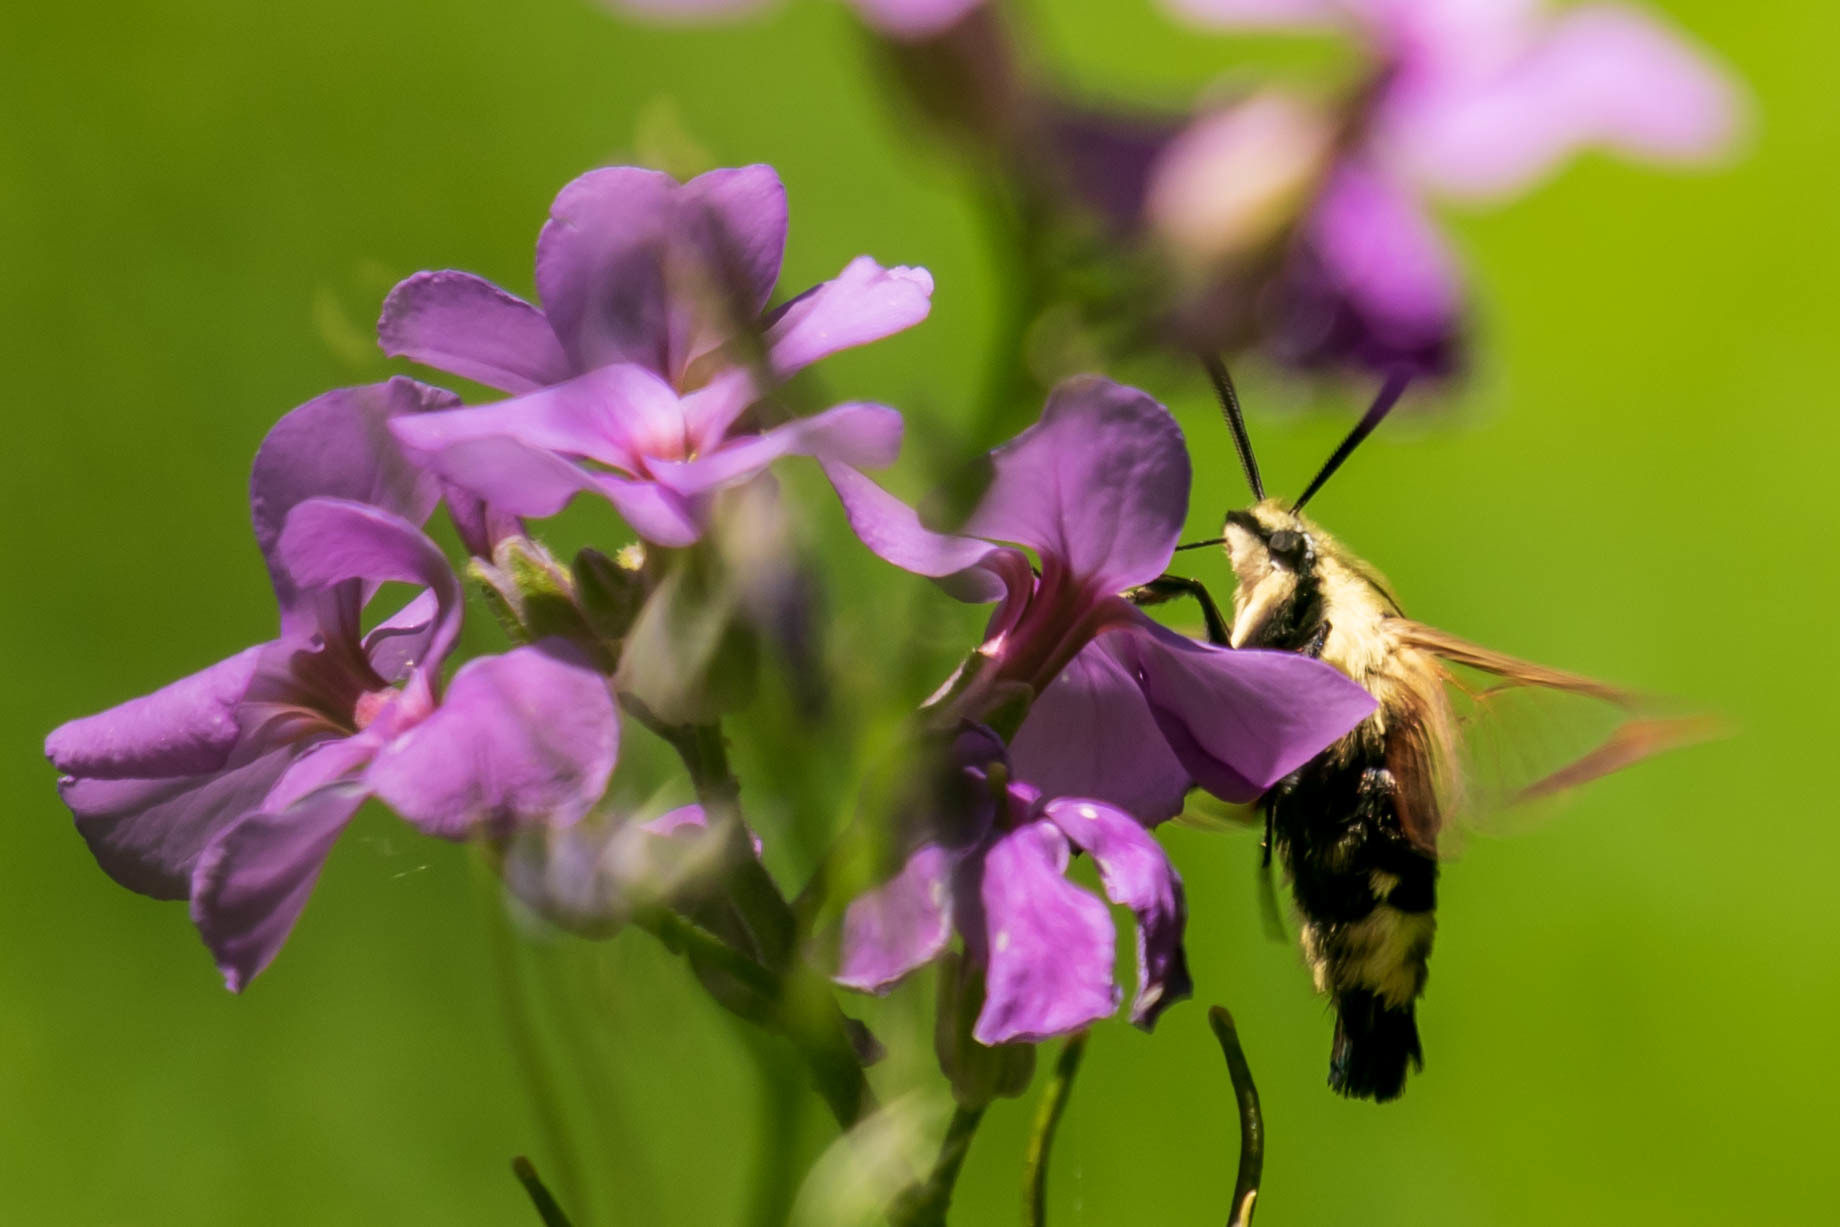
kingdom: Animalia
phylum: Arthropoda
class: Insecta
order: Lepidoptera
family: Sphingidae
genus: Hemaris
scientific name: Hemaris diffinis
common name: Bumblebee moth
